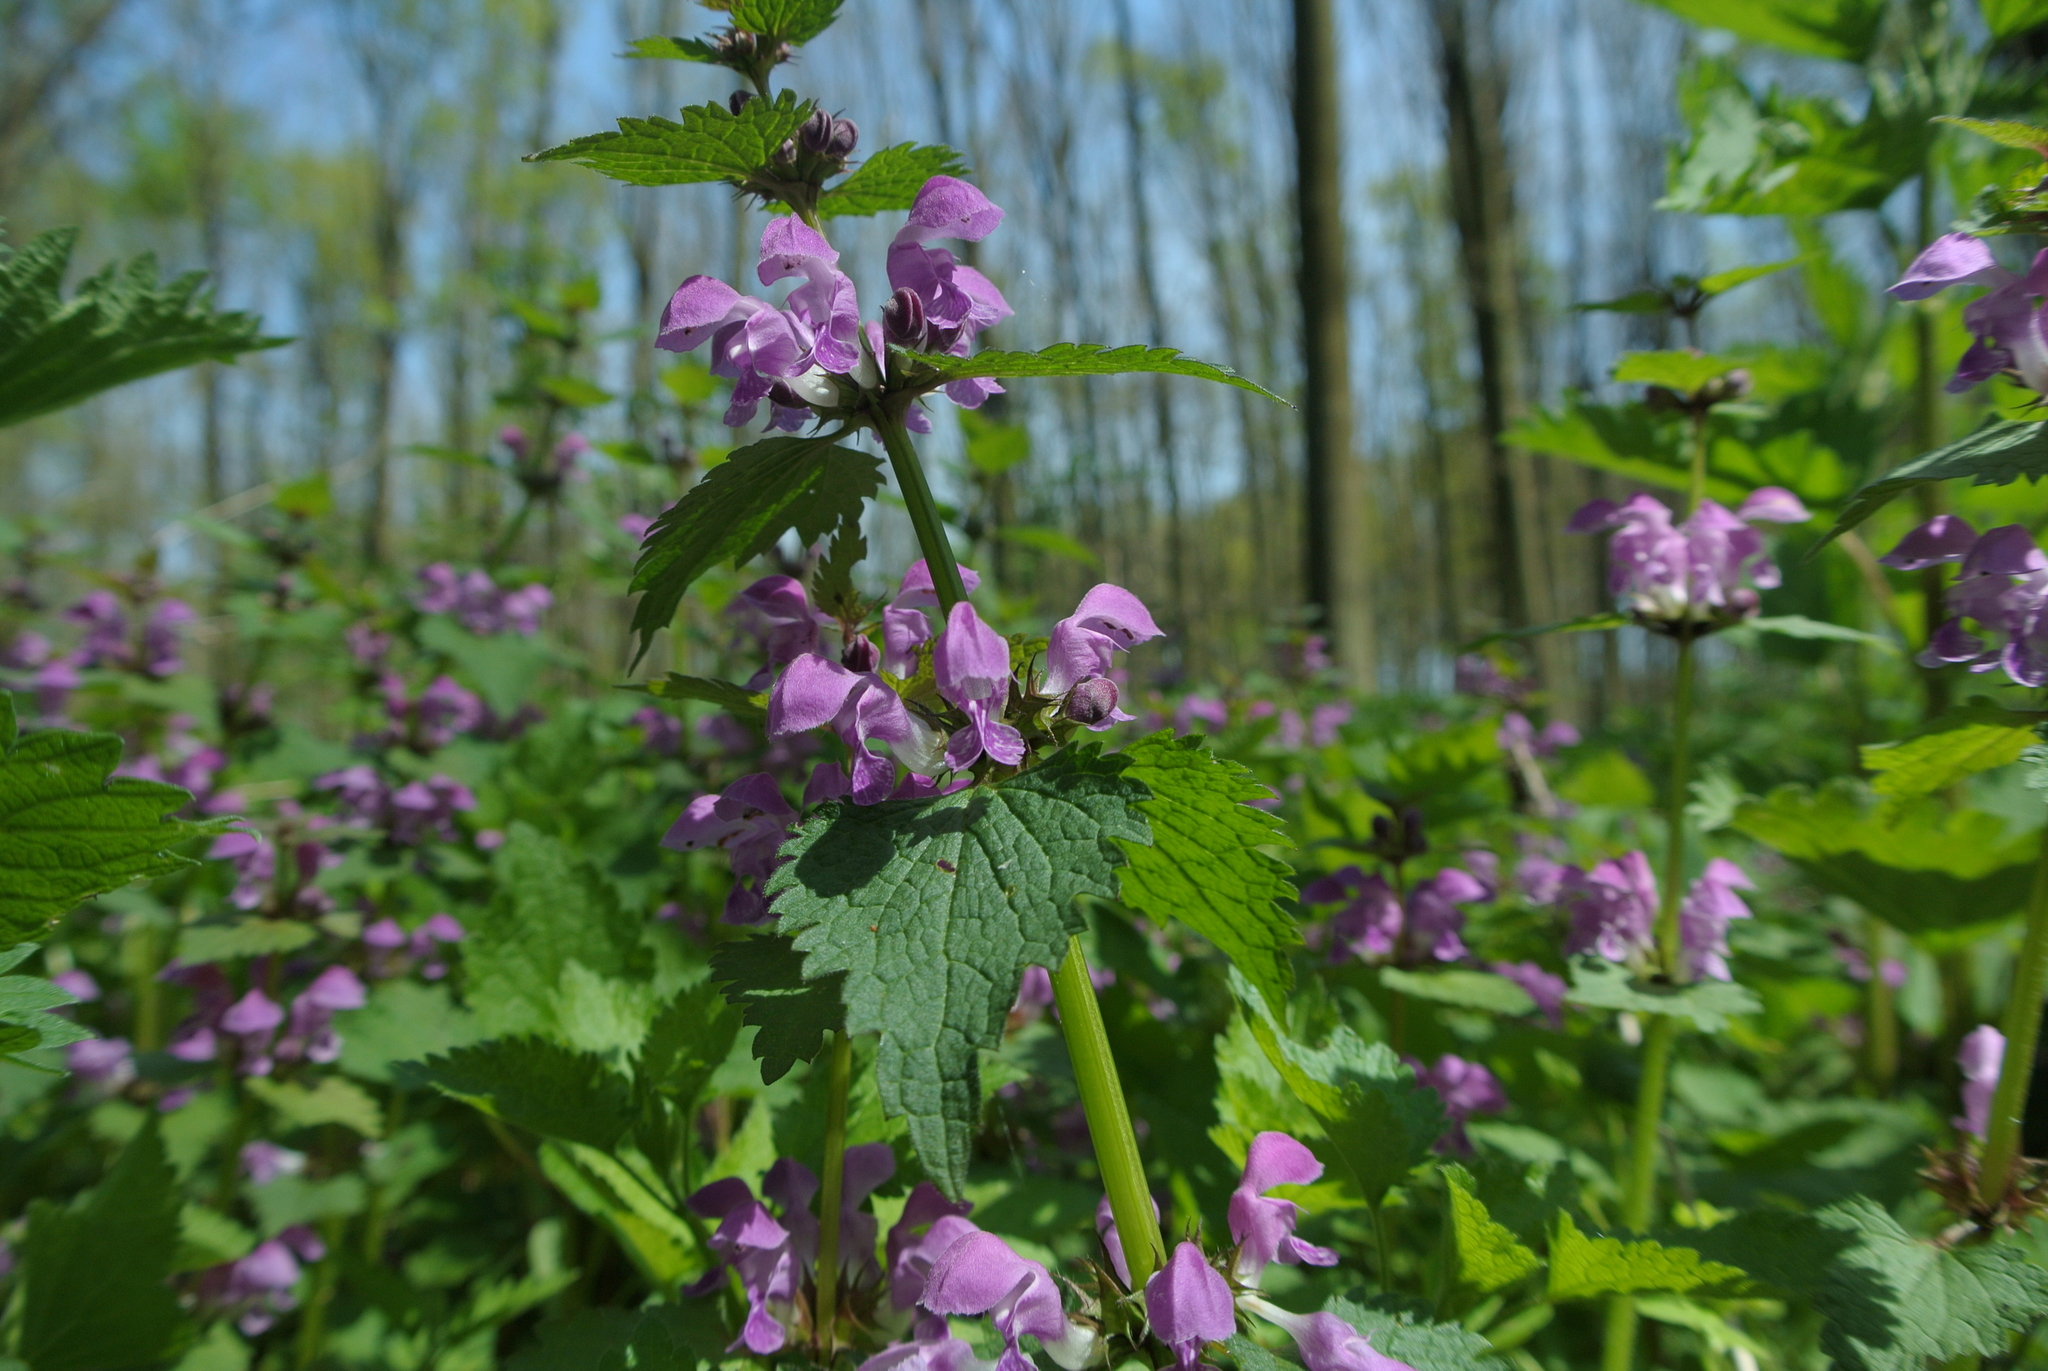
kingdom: Plantae
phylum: Tracheophyta
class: Magnoliopsida
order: Lamiales
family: Lamiaceae
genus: Lamium
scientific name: Lamium maculatum
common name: Spotted dead-nettle
